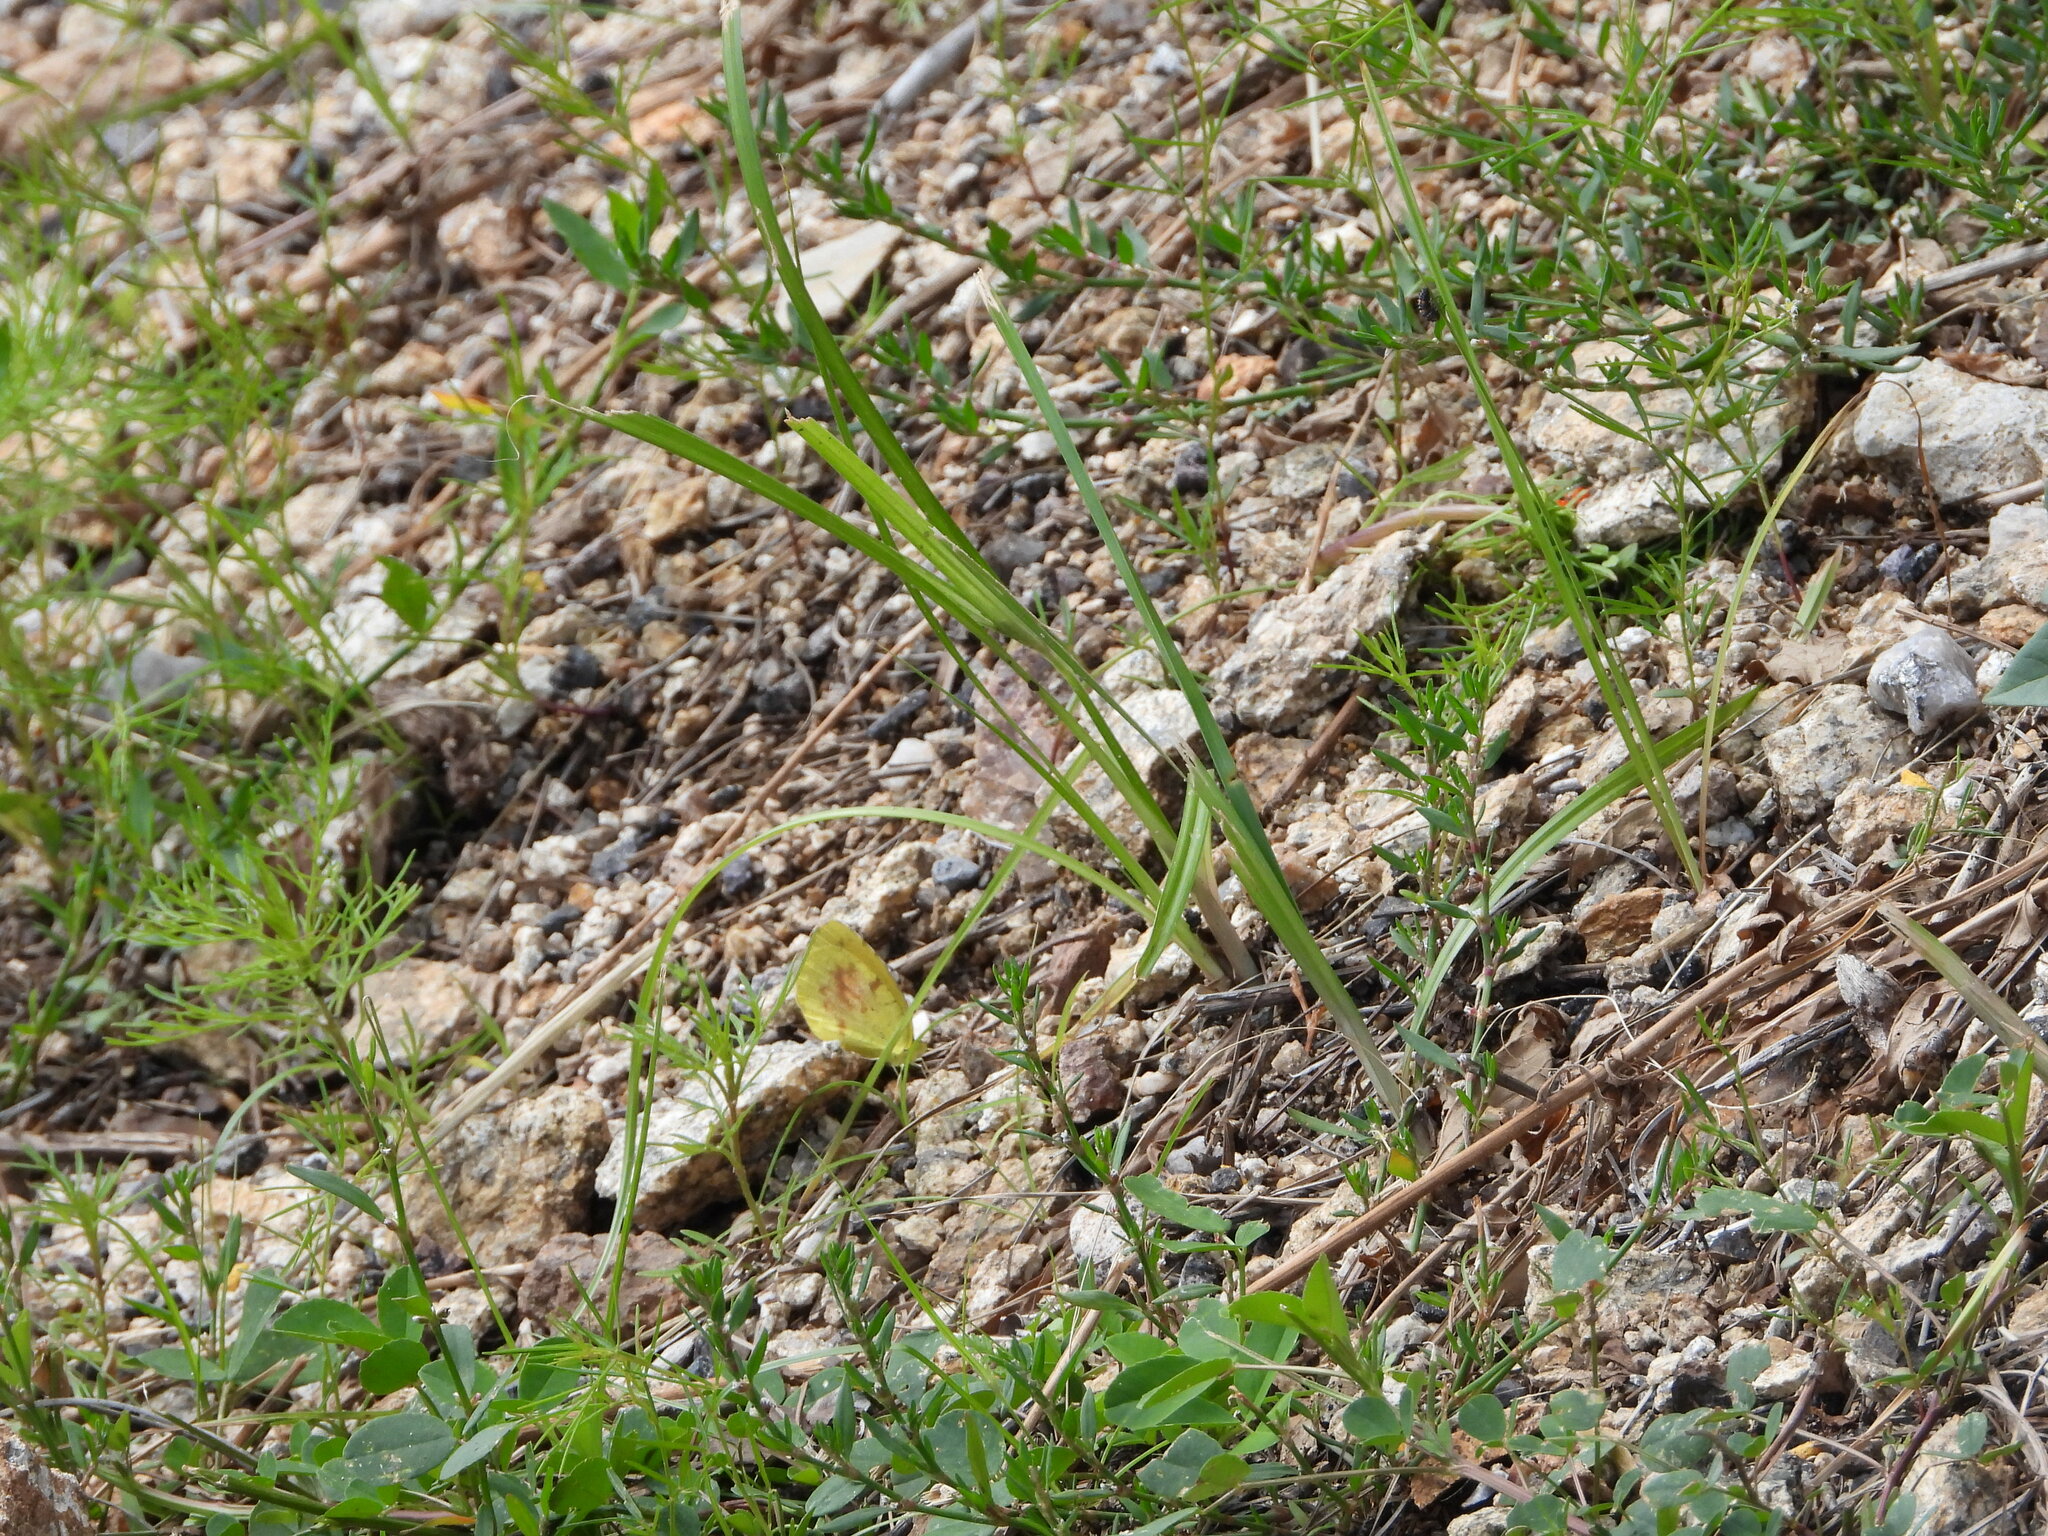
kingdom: Animalia
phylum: Arthropoda
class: Insecta
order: Lepidoptera
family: Pieridae
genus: Abaeis
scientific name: Abaeis nicippe
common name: Sleepy orange
